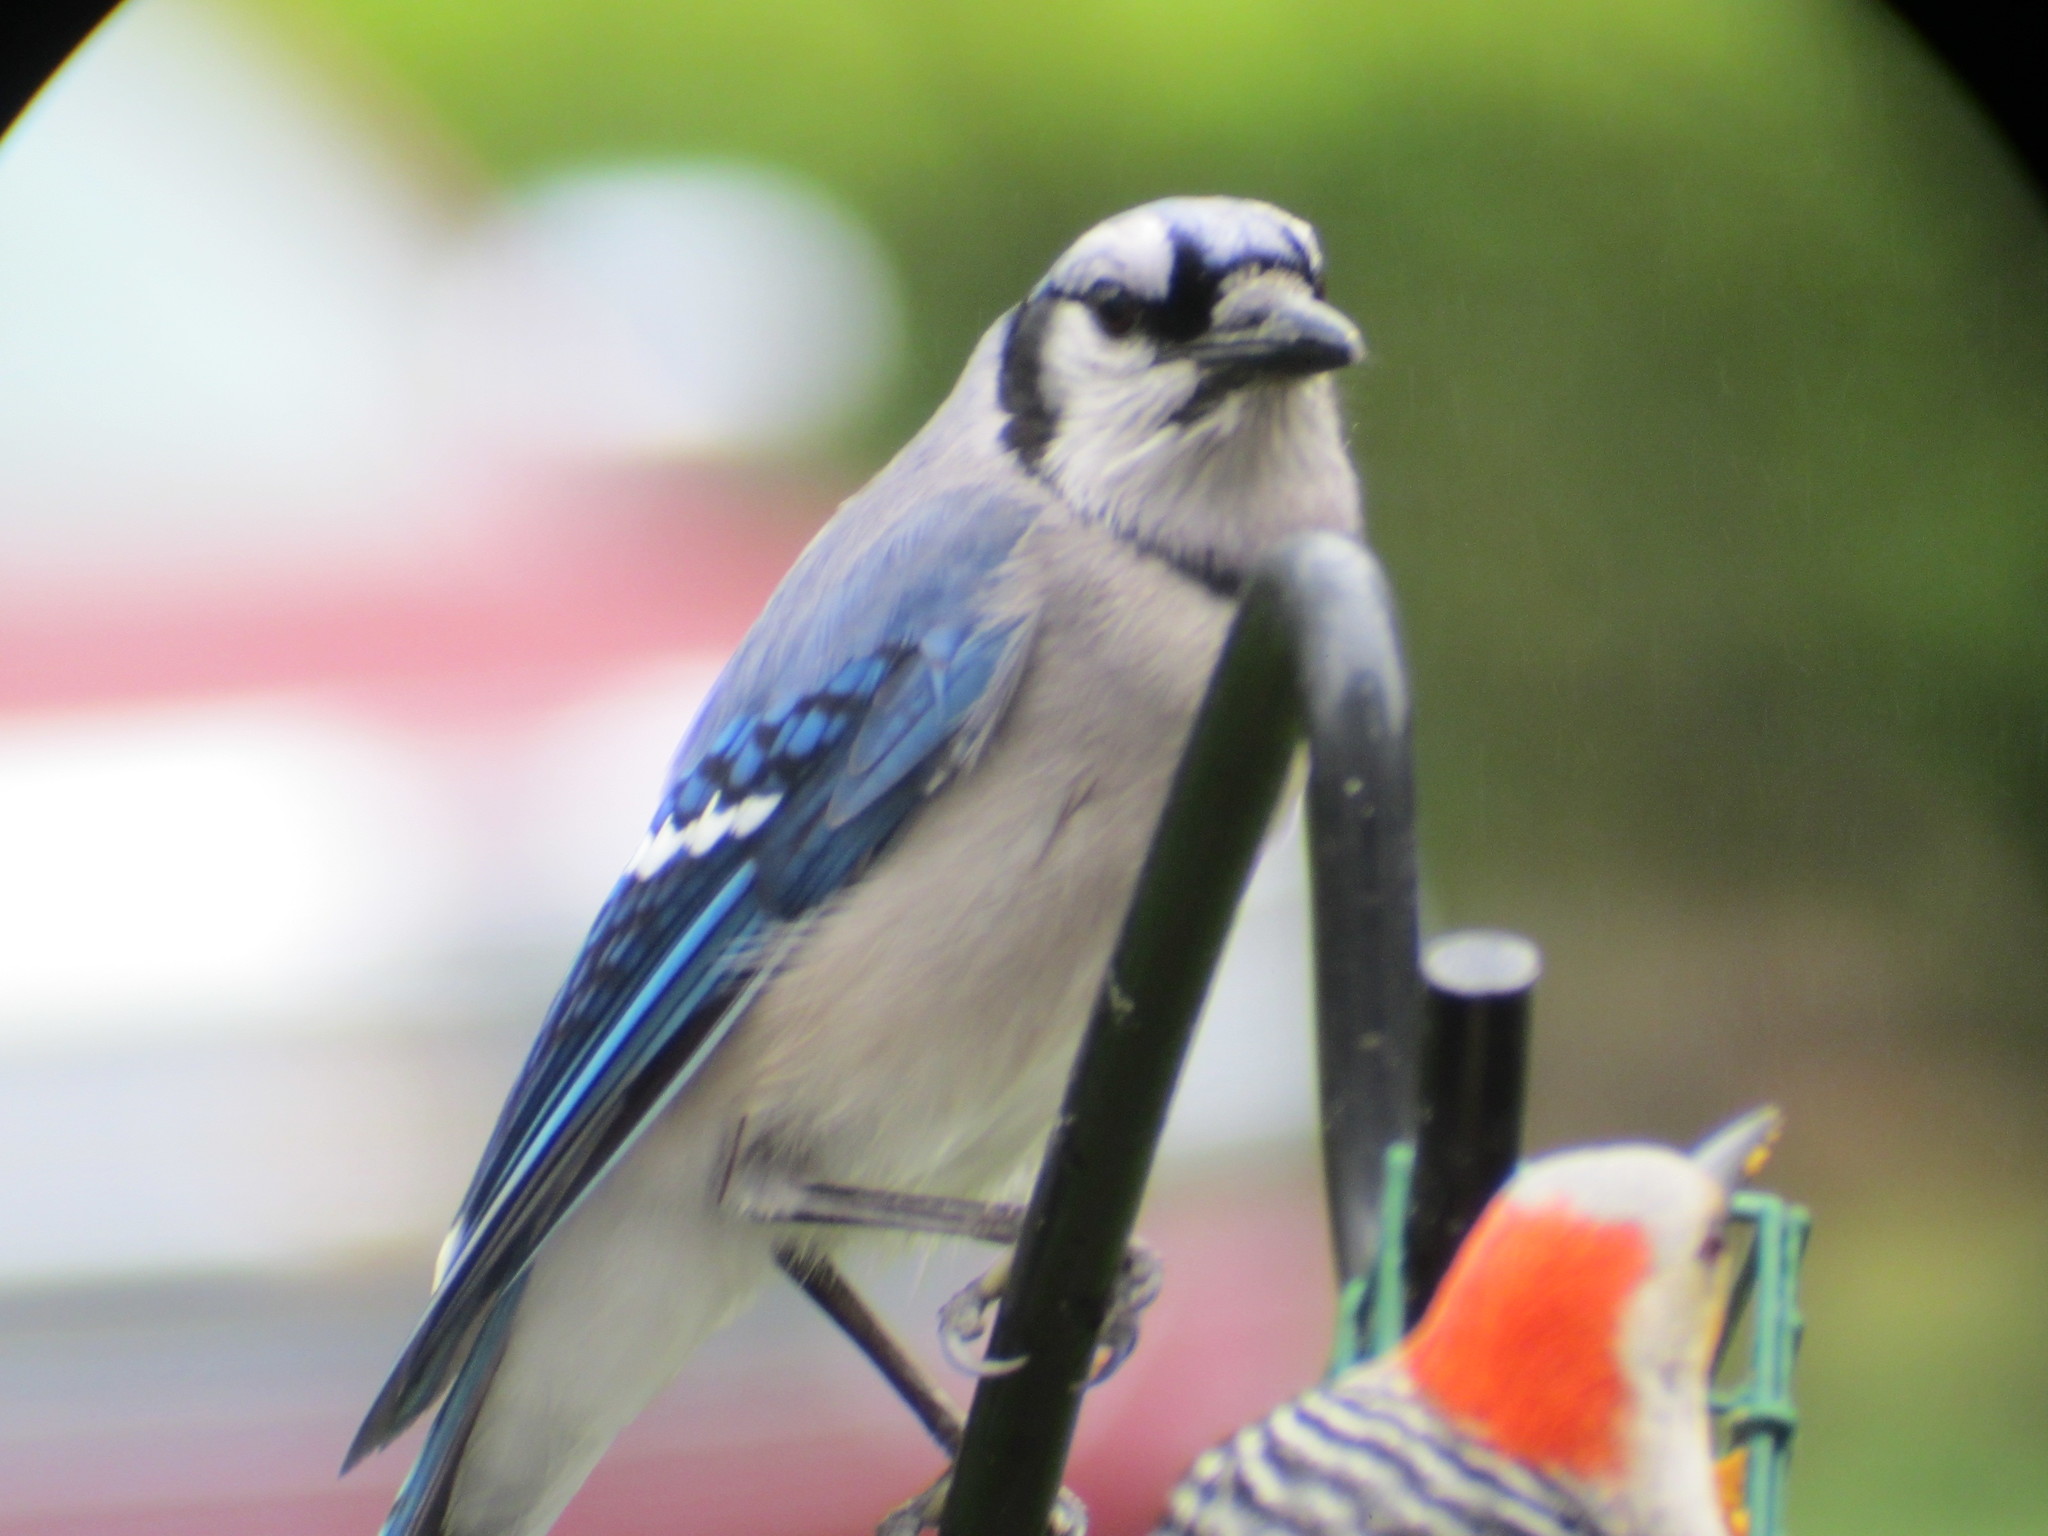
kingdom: Animalia
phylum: Chordata
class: Aves
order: Passeriformes
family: Corvidae
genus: Cyanocitta
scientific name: Cyanocitta cristata
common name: Blue jay
